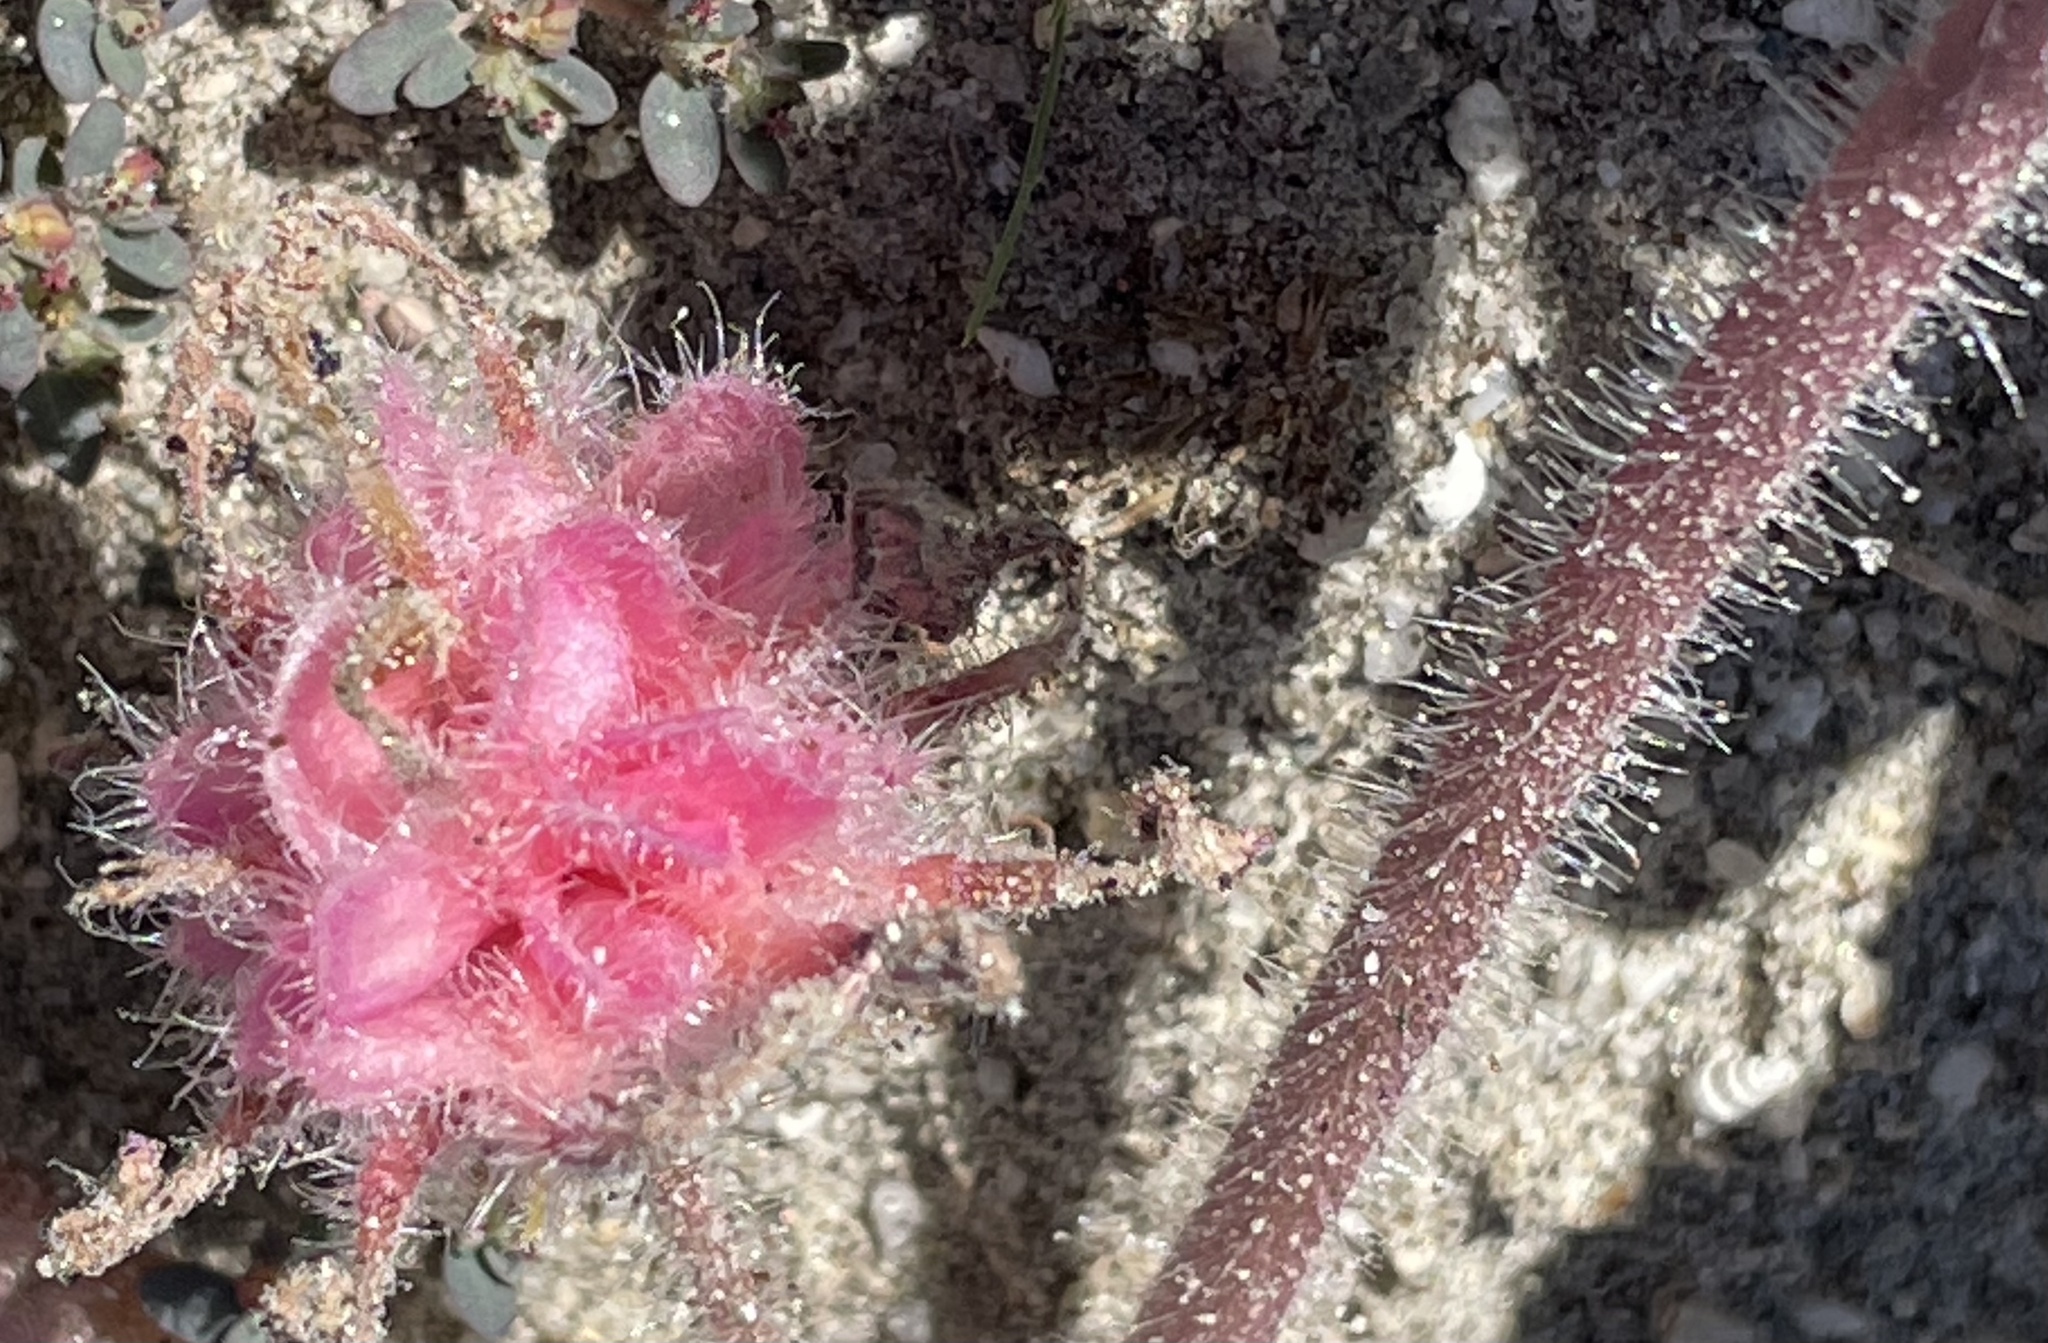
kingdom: Plantae
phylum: Tracheophyta
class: Magnoliopsida
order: Caryophyllales
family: Nyctaginaceae
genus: Abronia
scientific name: Abronia villosa
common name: Desert sand-verbena
